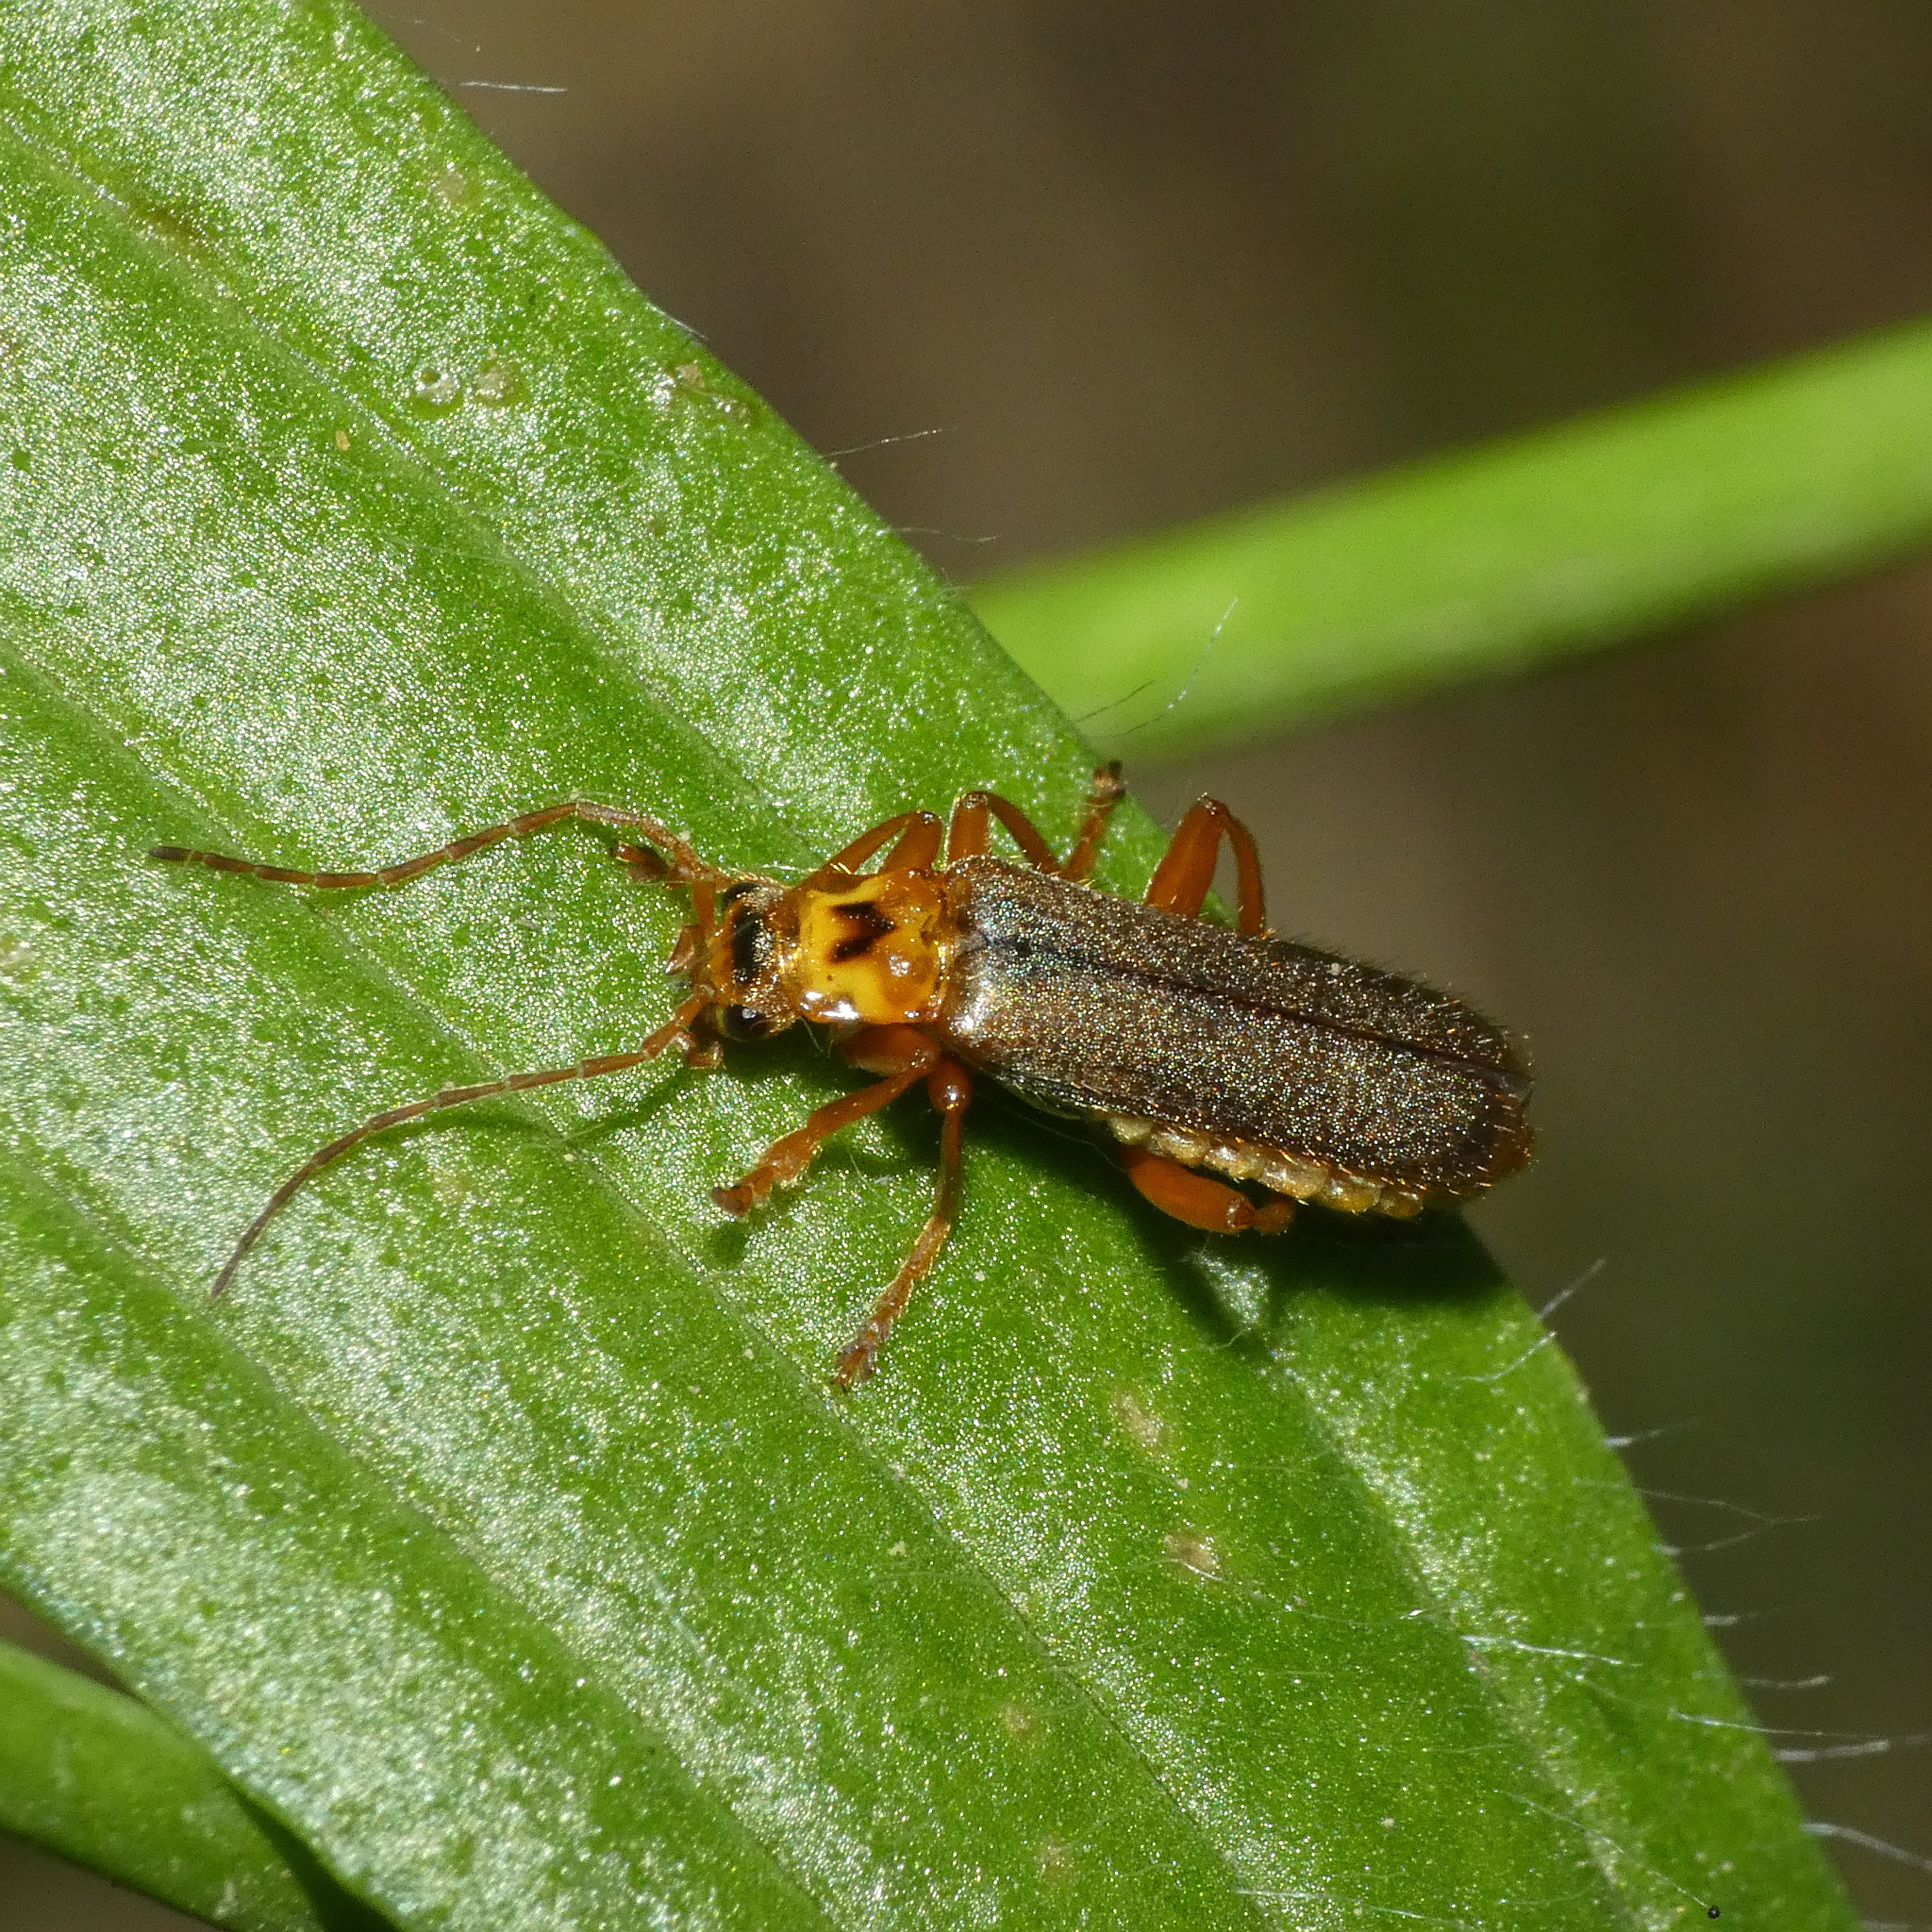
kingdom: Animalia
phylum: Arthropoda
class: Insecta
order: Coleoptera
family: Cantharidae
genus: Cultellunguis
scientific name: Cultellunguis americanus
